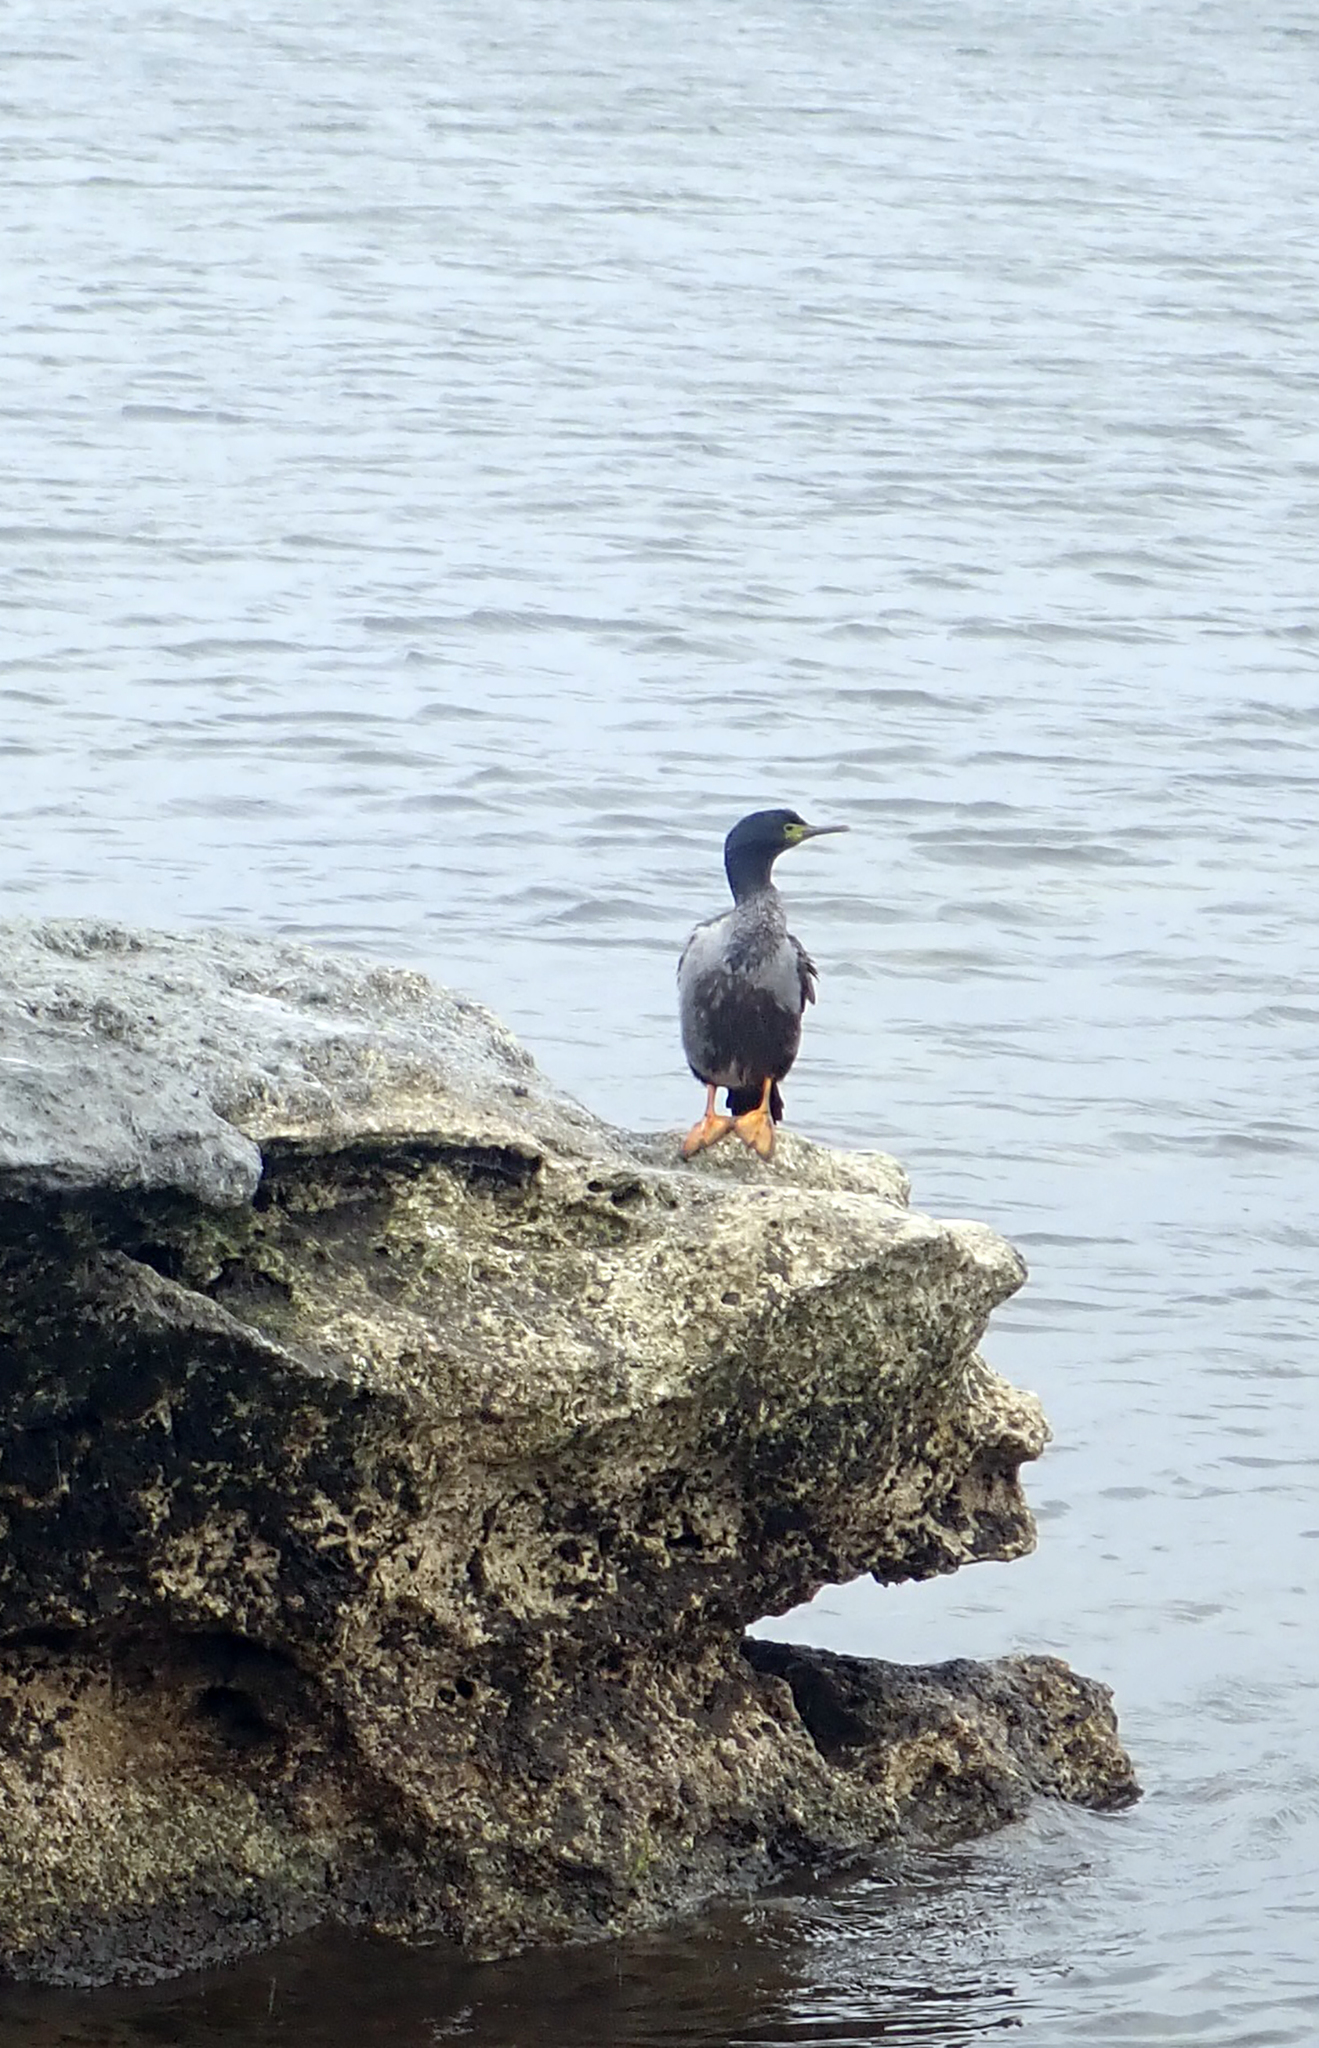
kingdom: Animalia
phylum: Chordata
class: Aves
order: Suliformes
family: Phalacrocoracidae
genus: Phalacrocorax
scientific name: Phalacrocorax featherstoni
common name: Pitt shag
